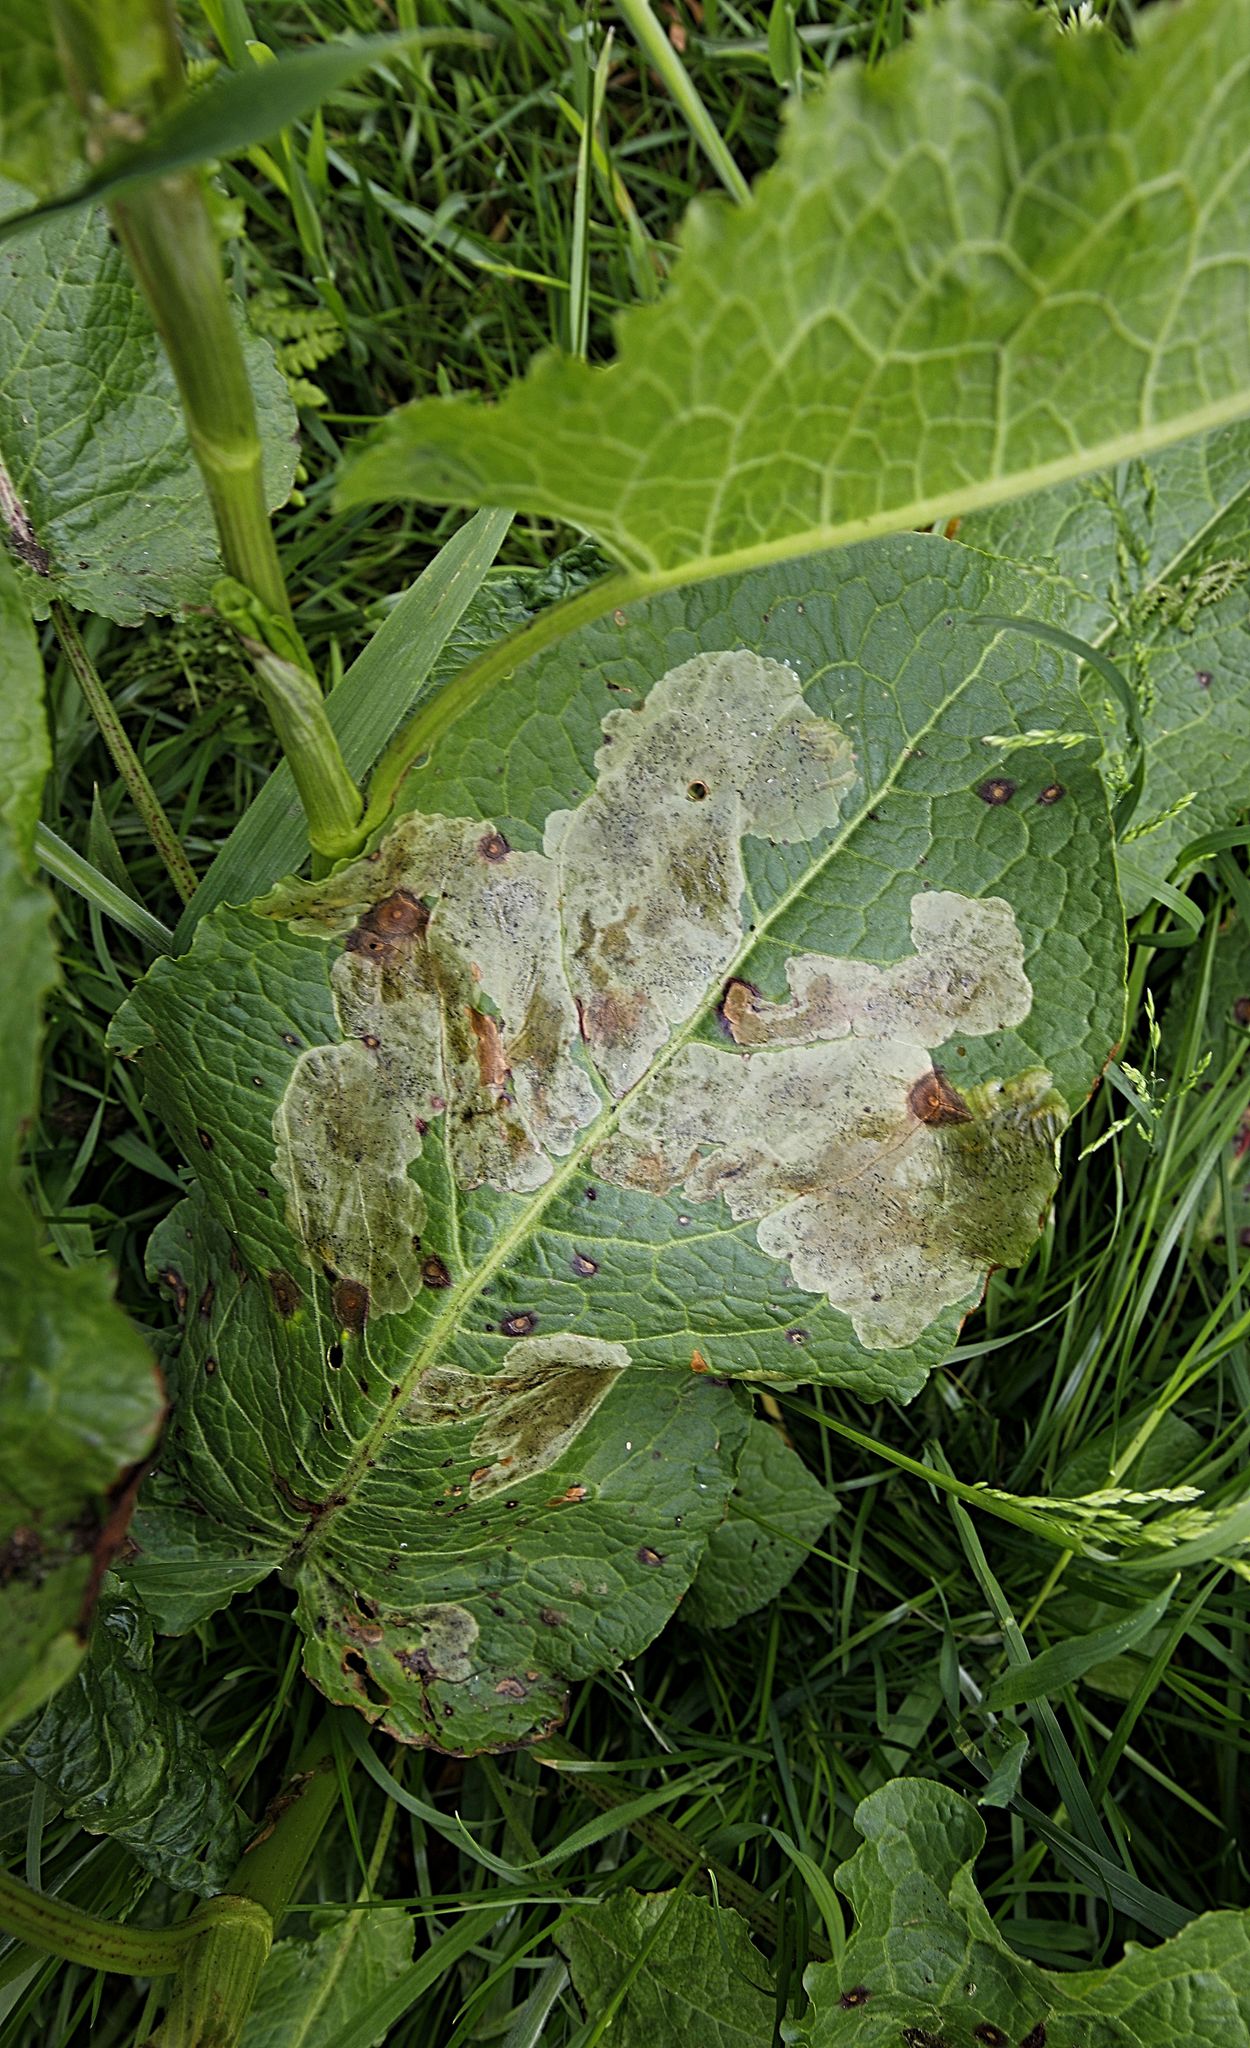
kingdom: Plantae
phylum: Tracheophyta
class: Magnoliopsida
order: Caryophyllales
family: Polygonaceae
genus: Rumex
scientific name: Rumex obtusifolius
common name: Bitter dock
